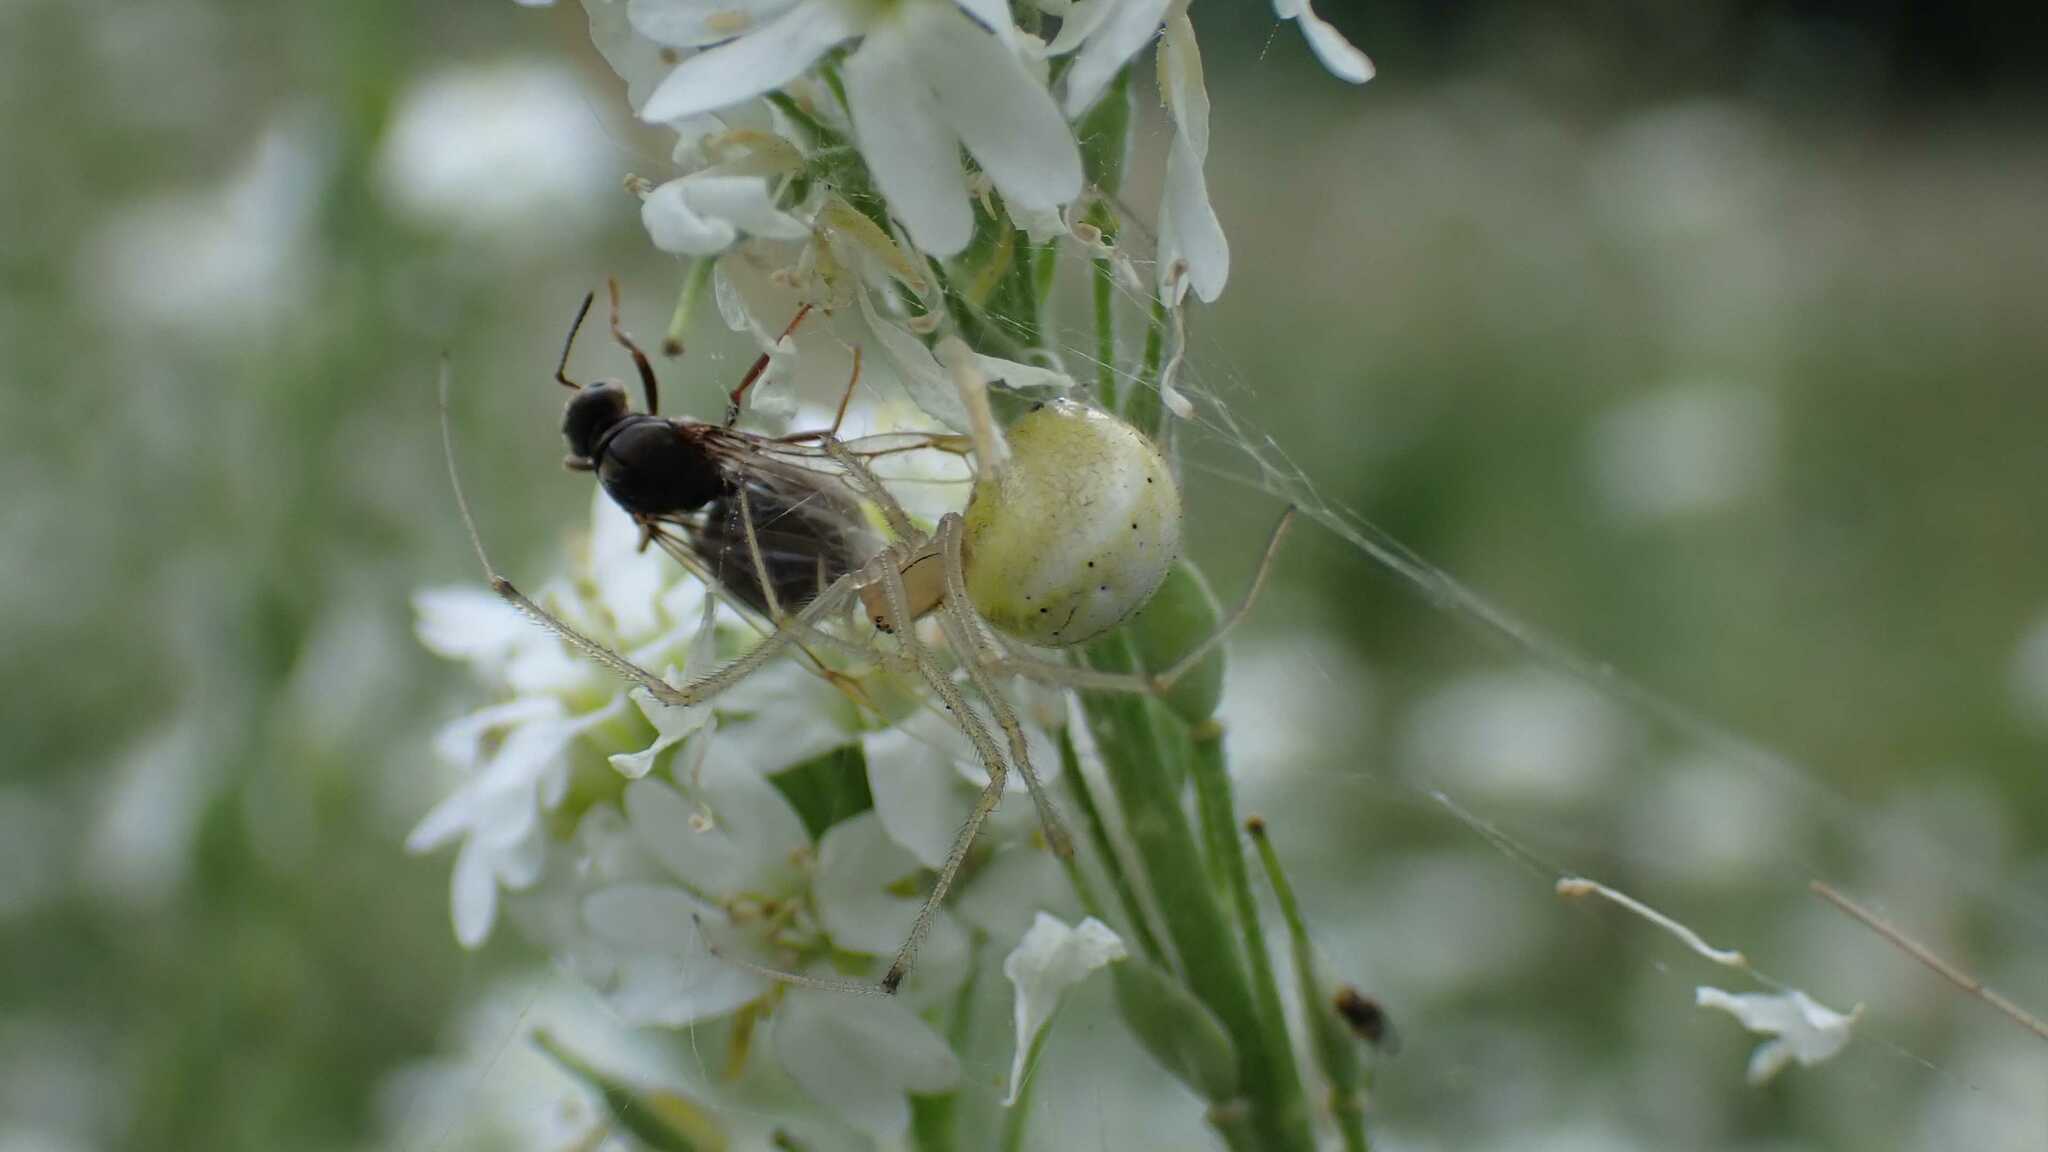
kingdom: Animalia
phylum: Arthropoda
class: Arachnida
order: Araneae
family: Theridiidae
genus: Enoplognatha
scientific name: Enoplognatha
